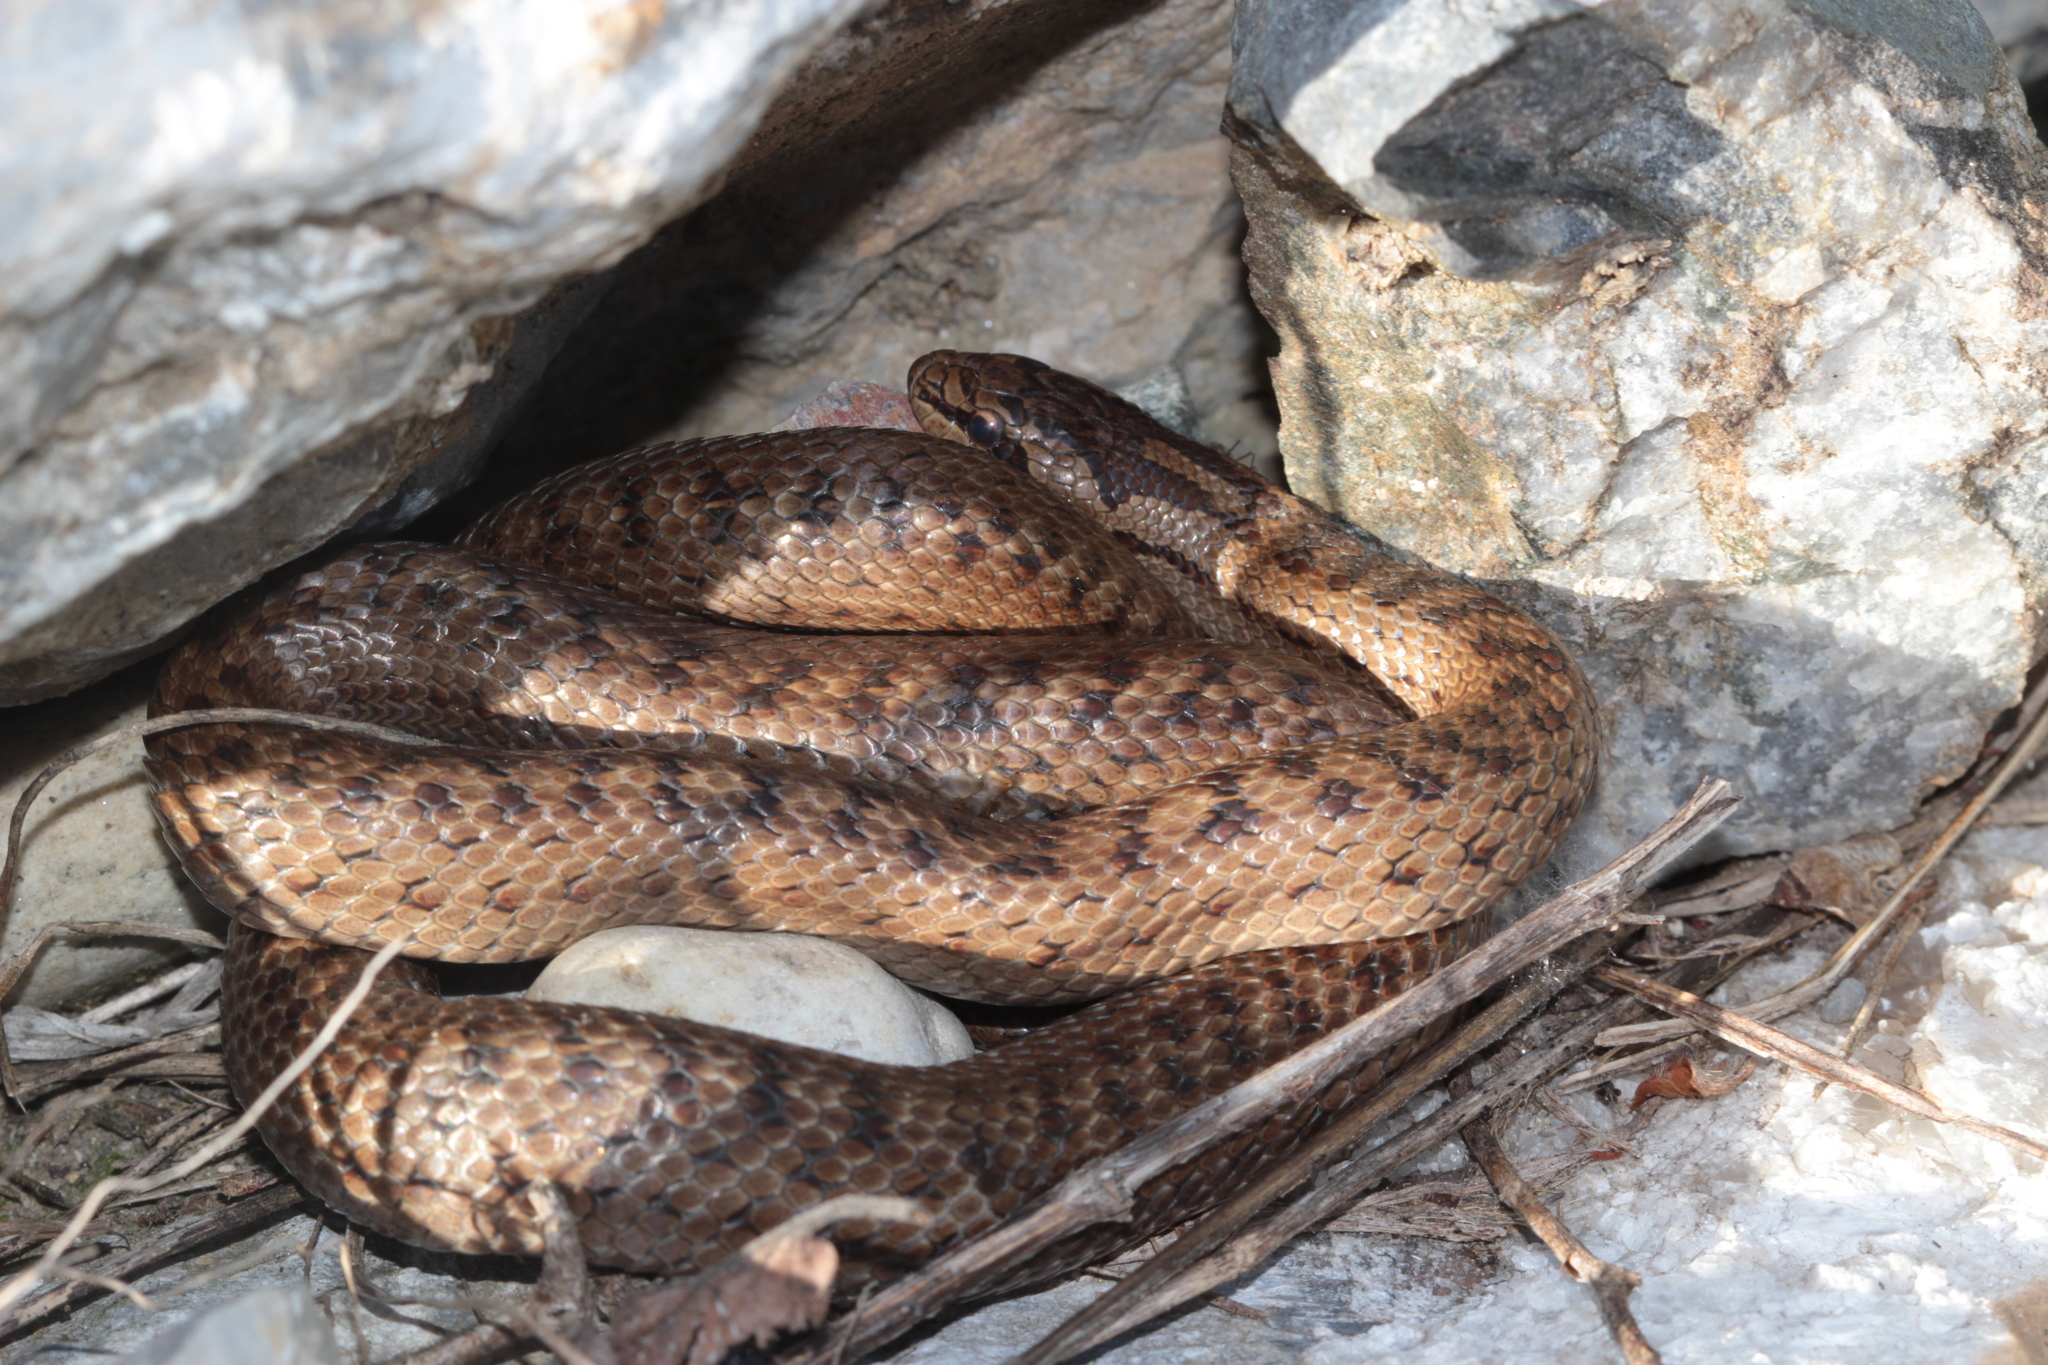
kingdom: Animalia
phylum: Chordata
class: Squamata
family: Colubridae
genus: Coronella
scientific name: Coronella austriaca
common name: Smooth snake
